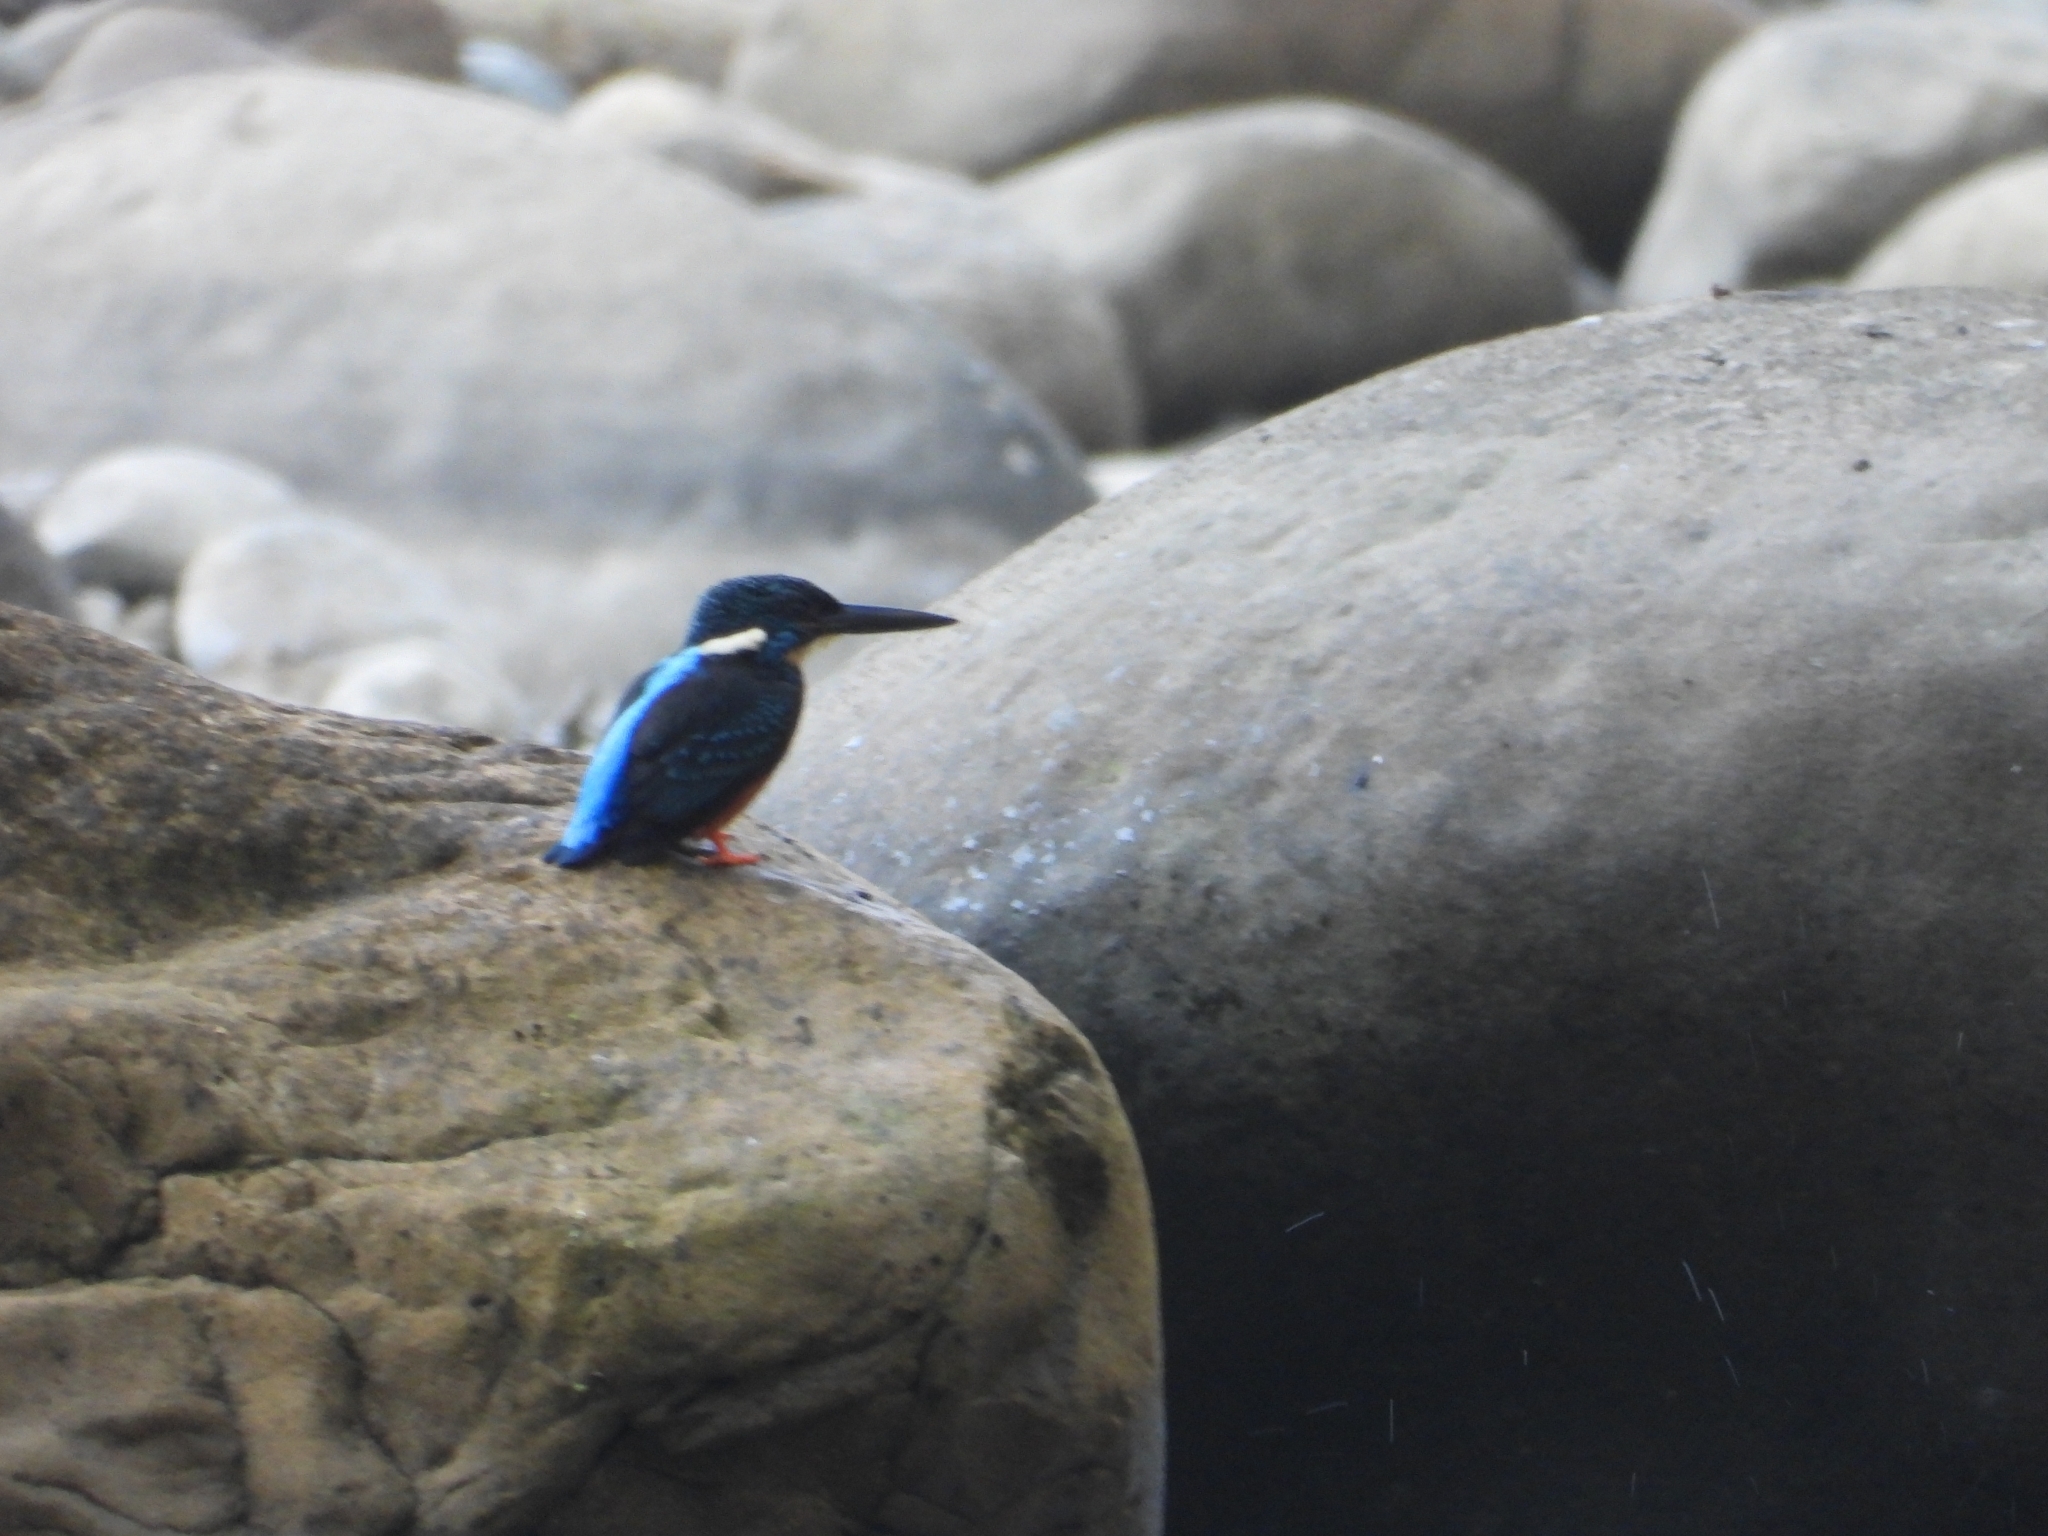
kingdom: Animalia
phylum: Chordata
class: Aves
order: Coraciiformes
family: Alcedinidae
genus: Alcedo
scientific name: Alcedo hercules
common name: Blyth's kingfisher
